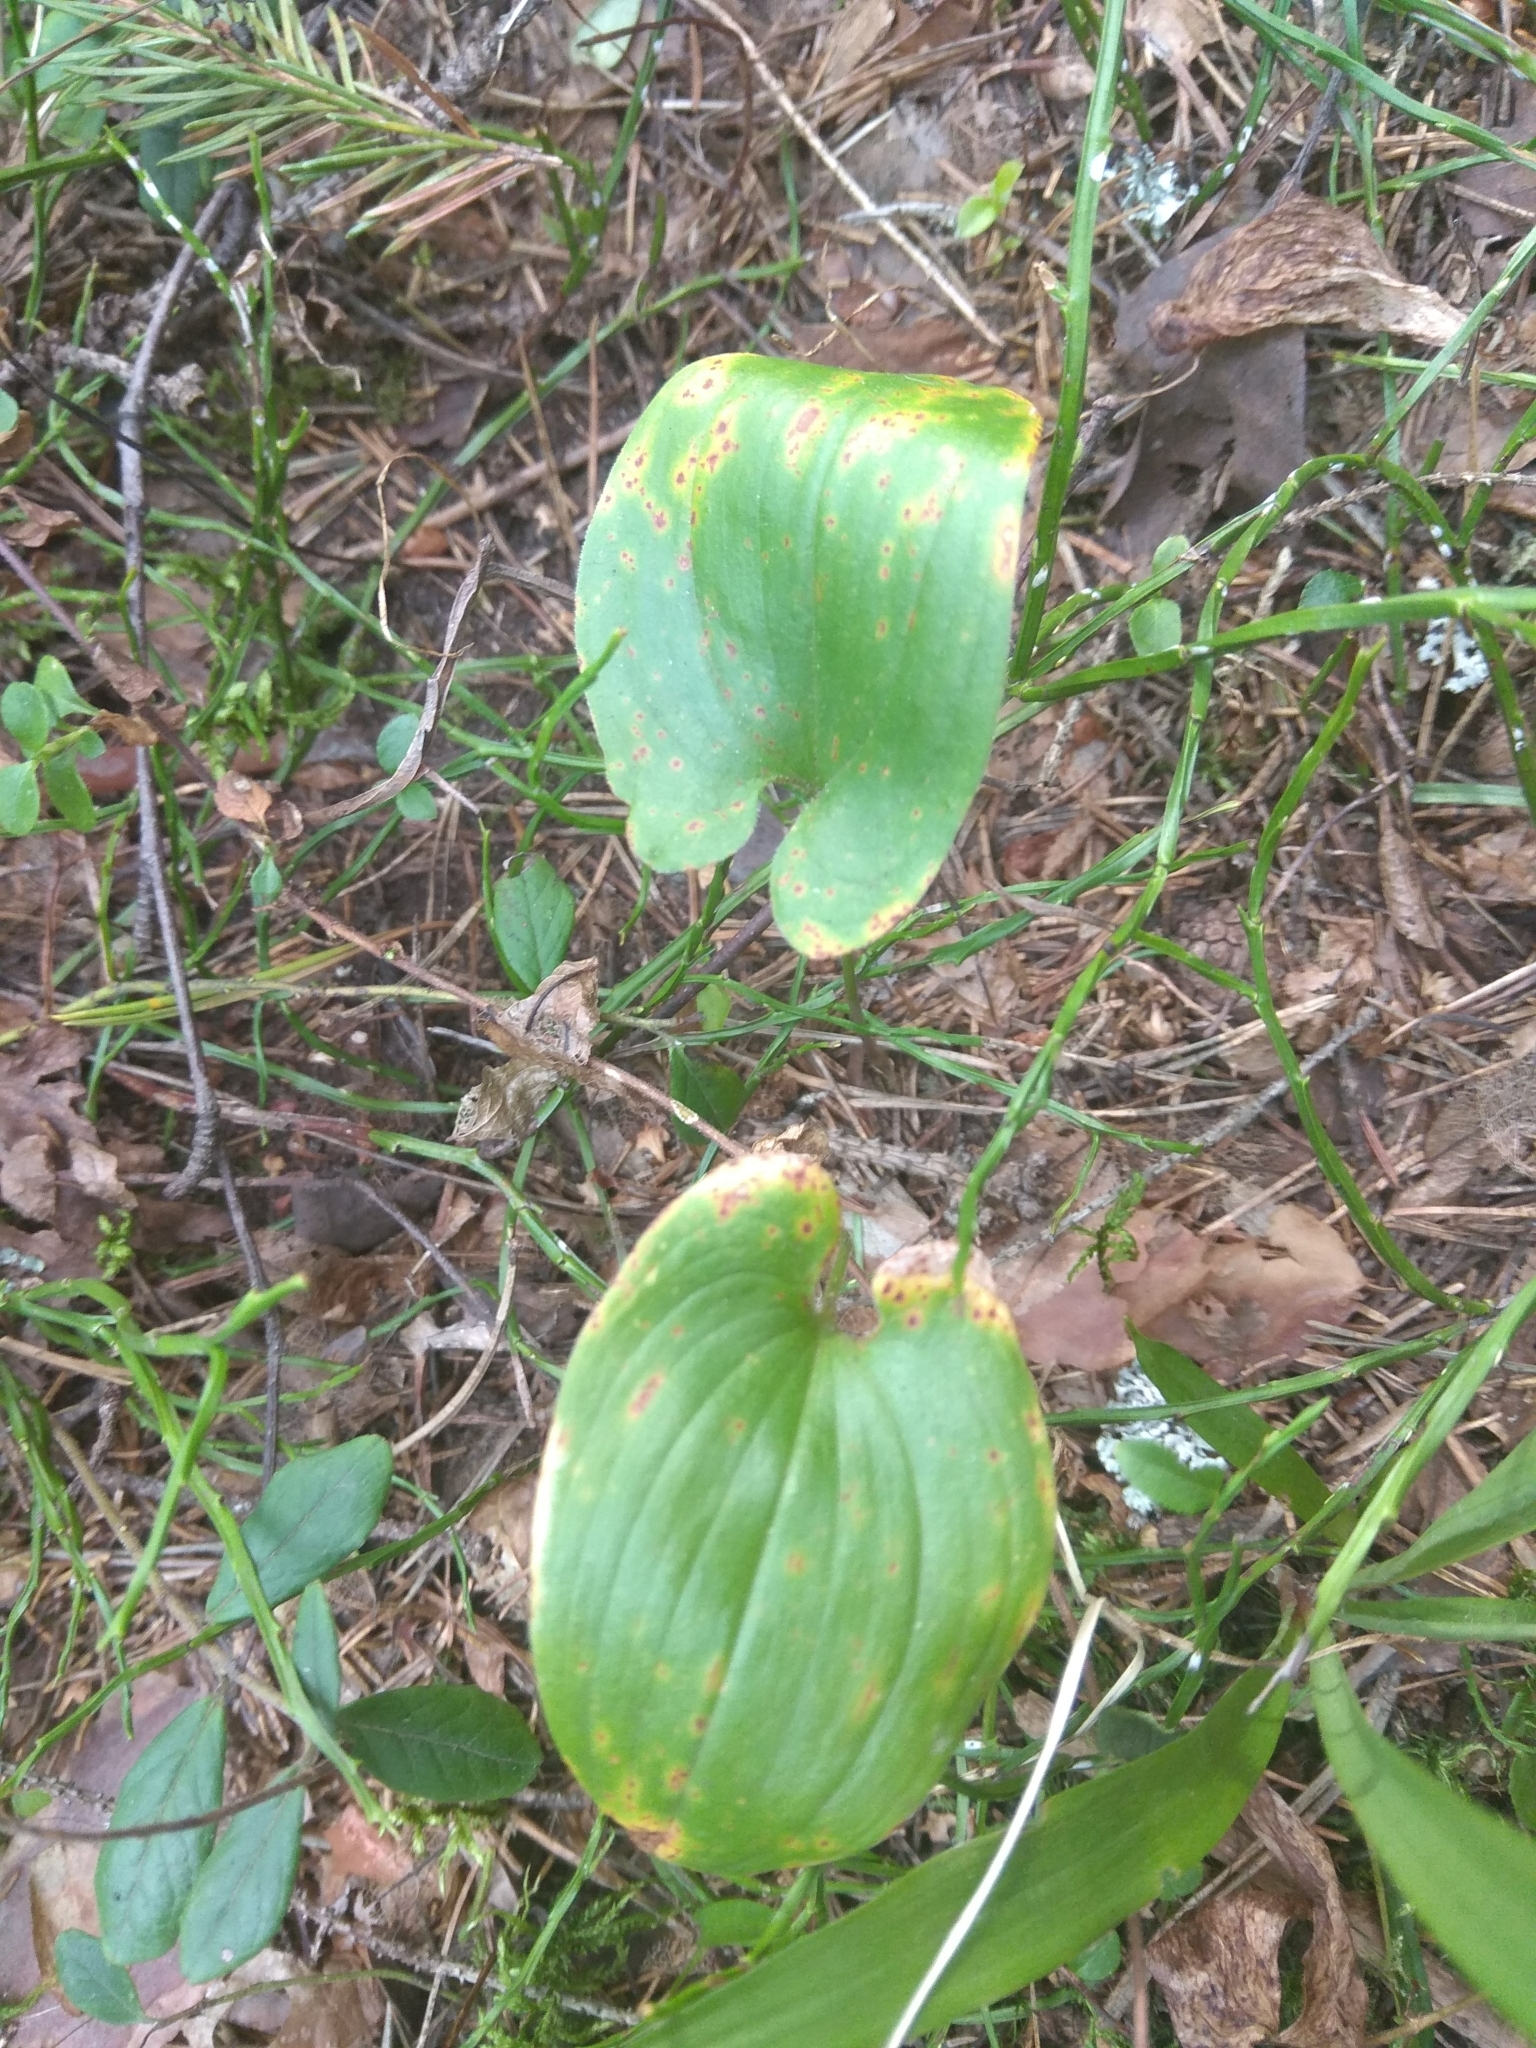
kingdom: Plantae
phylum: Tracheophyta
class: Liliopsida
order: Asparagales
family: Asparagaceae
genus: Maianthemum
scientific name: Maianthemum bifolium
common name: May lily
